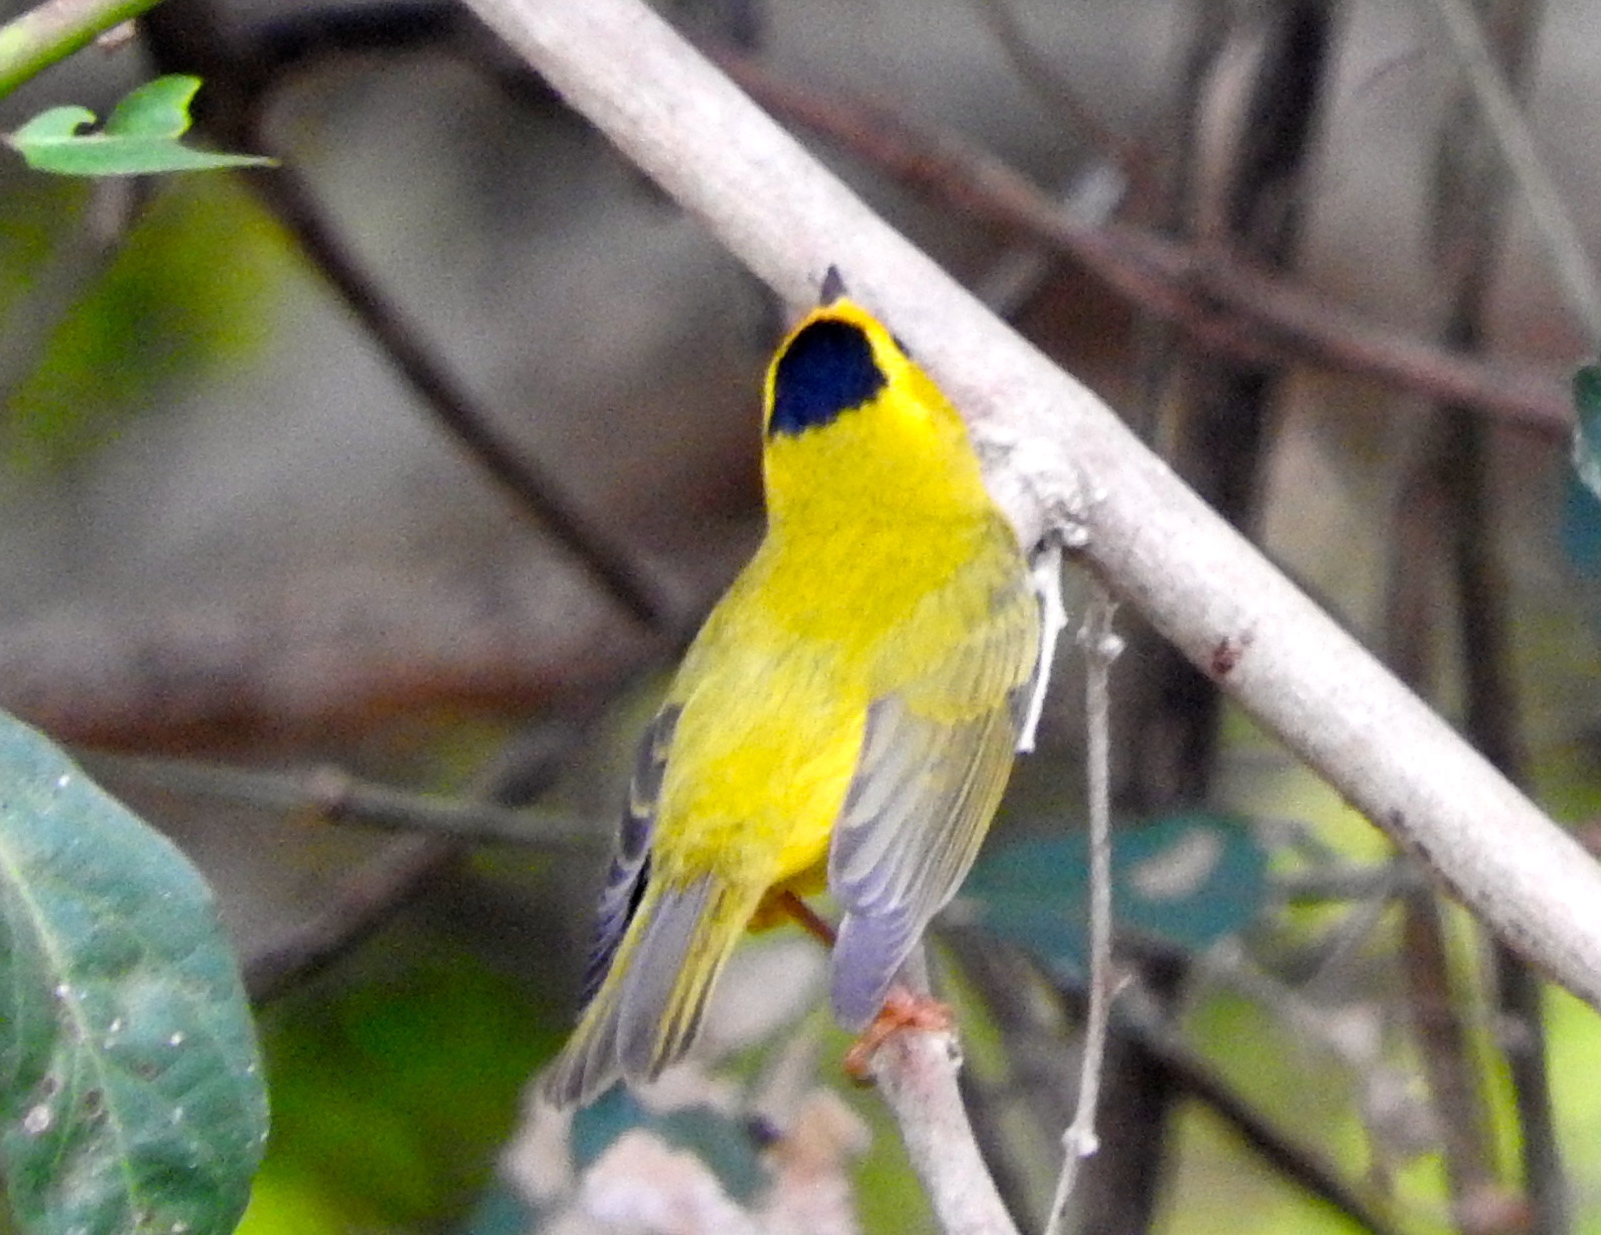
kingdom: Animalia
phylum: Chordata
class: Aves
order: Passeriformes
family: Parulidae
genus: Cardellina
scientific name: Cardellina pusilla
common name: Wilson's warbler
